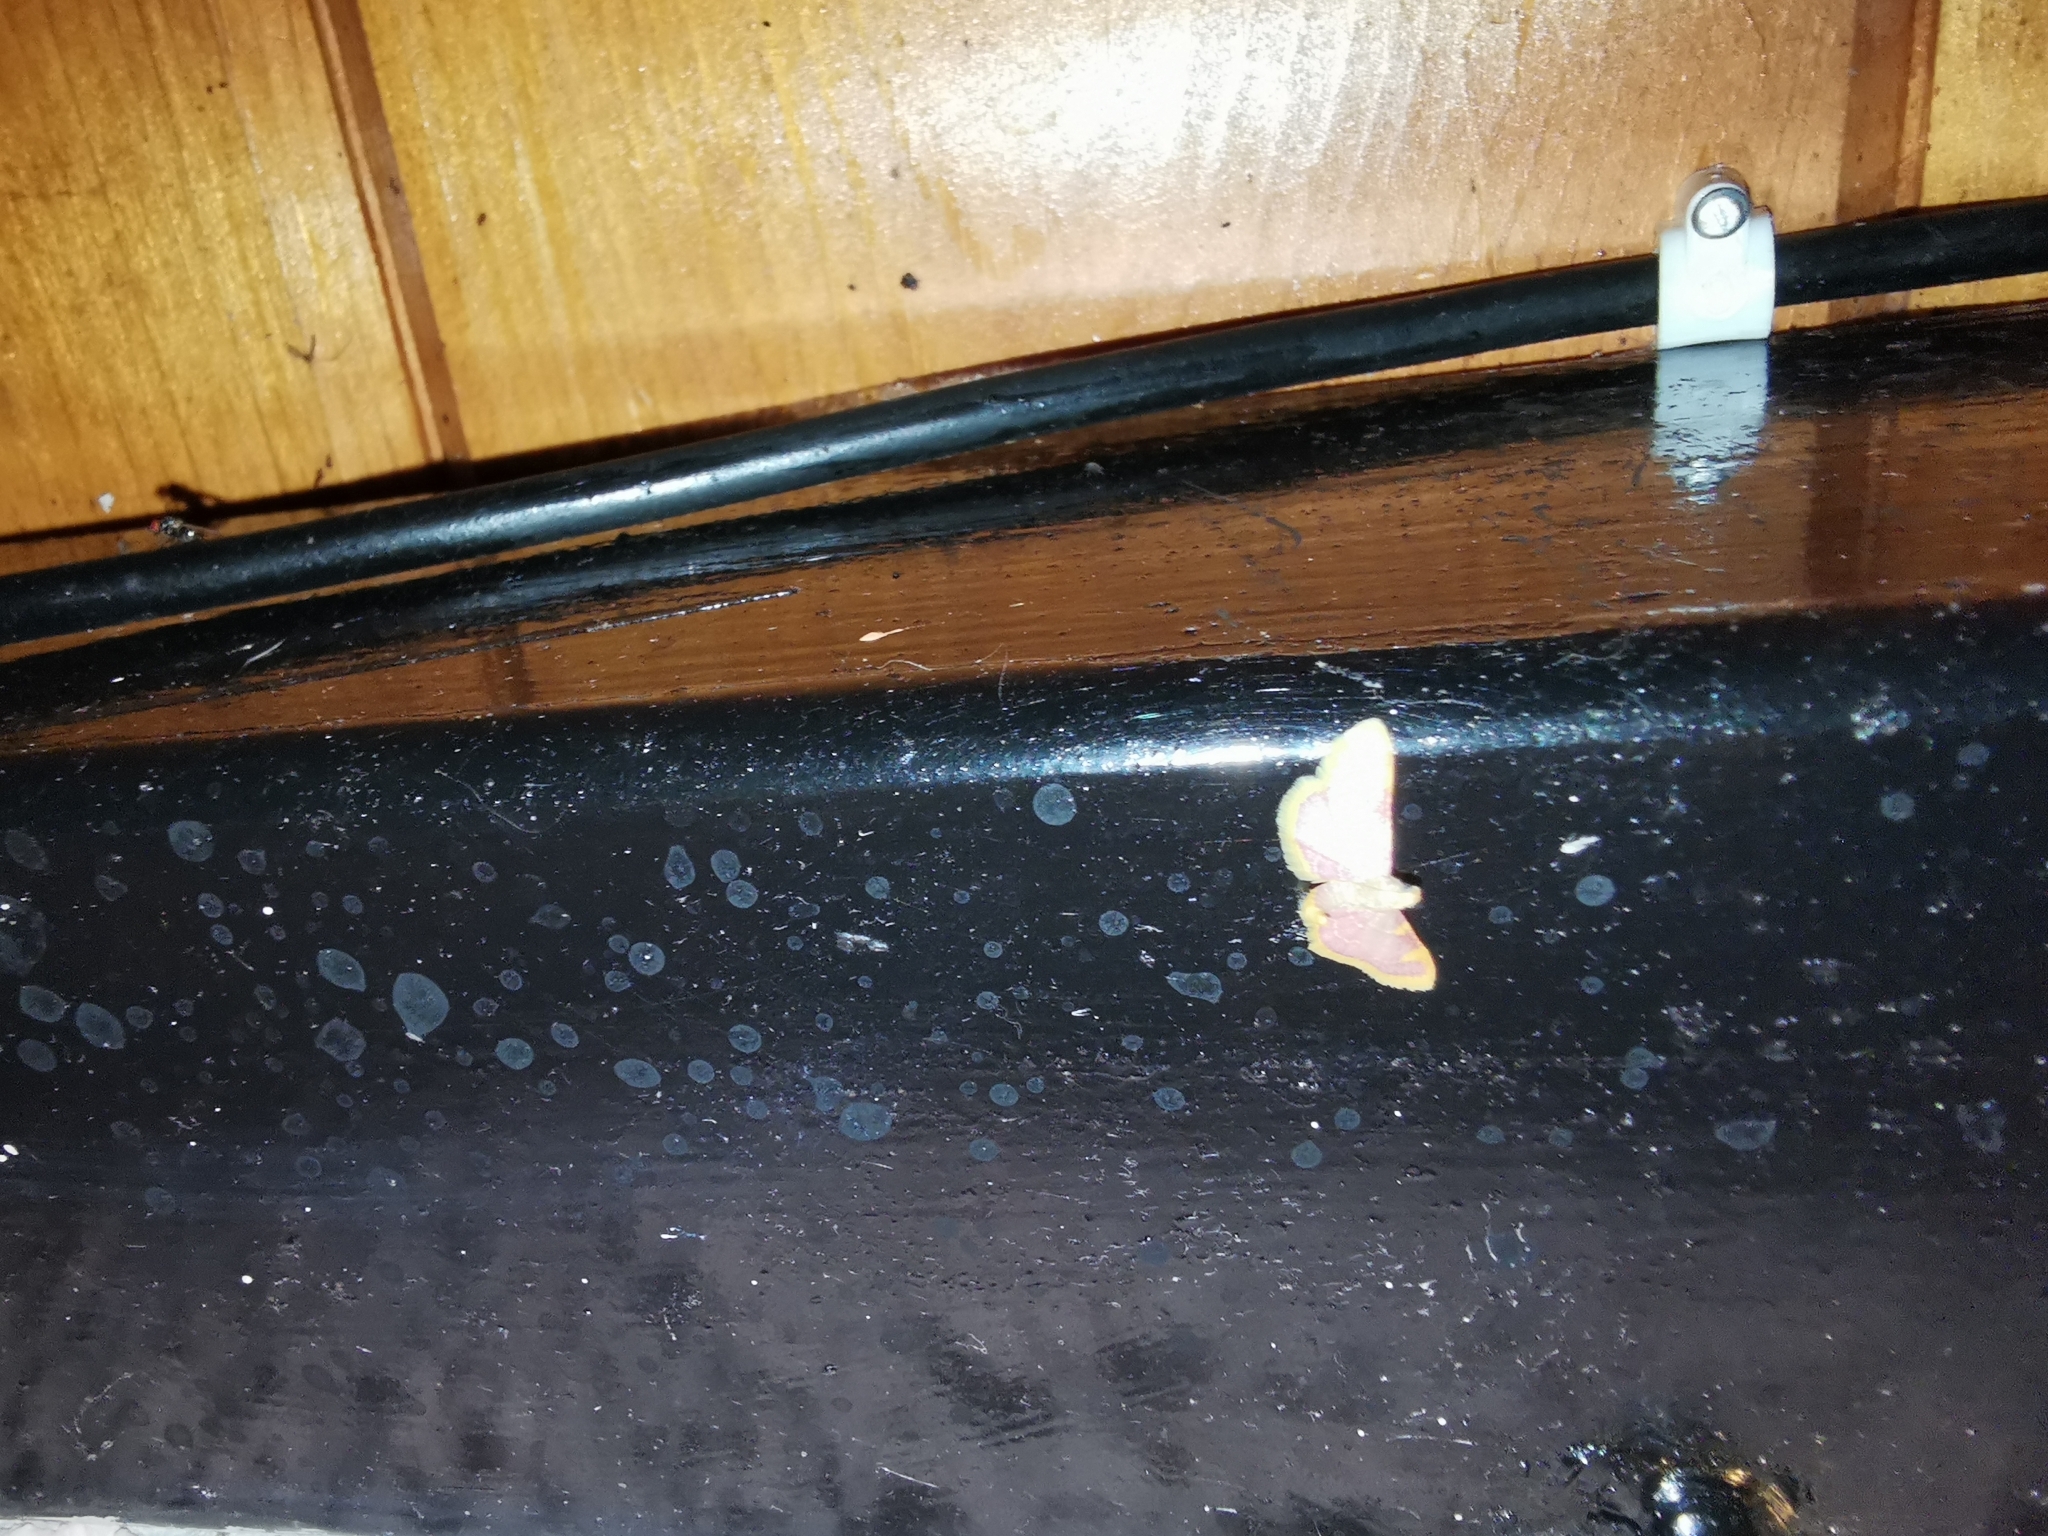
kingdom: Animalia
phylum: Arthropoda
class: Insecta
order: Lepidoptera
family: Pyralidae
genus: Hypsopygia
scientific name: Hypsopygia costalis
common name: Gold triangle
